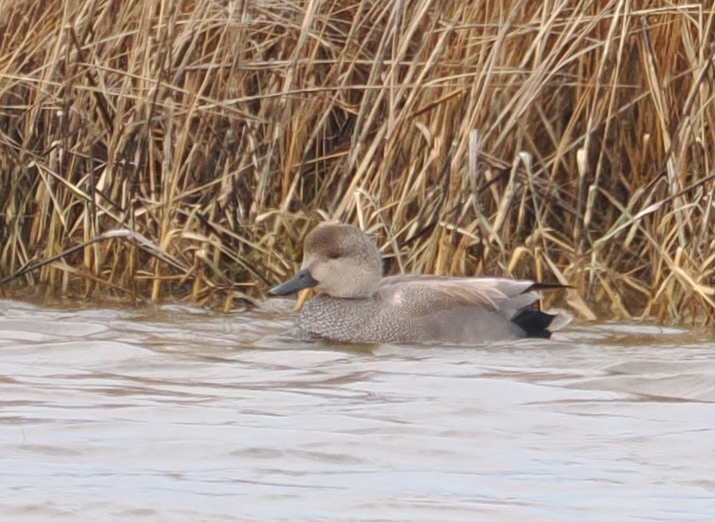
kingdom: Animalia
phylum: Chordata
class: Aves
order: Anseriformes
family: Anatidae
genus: Mareca
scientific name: Mareca strepera
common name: Gadwall
